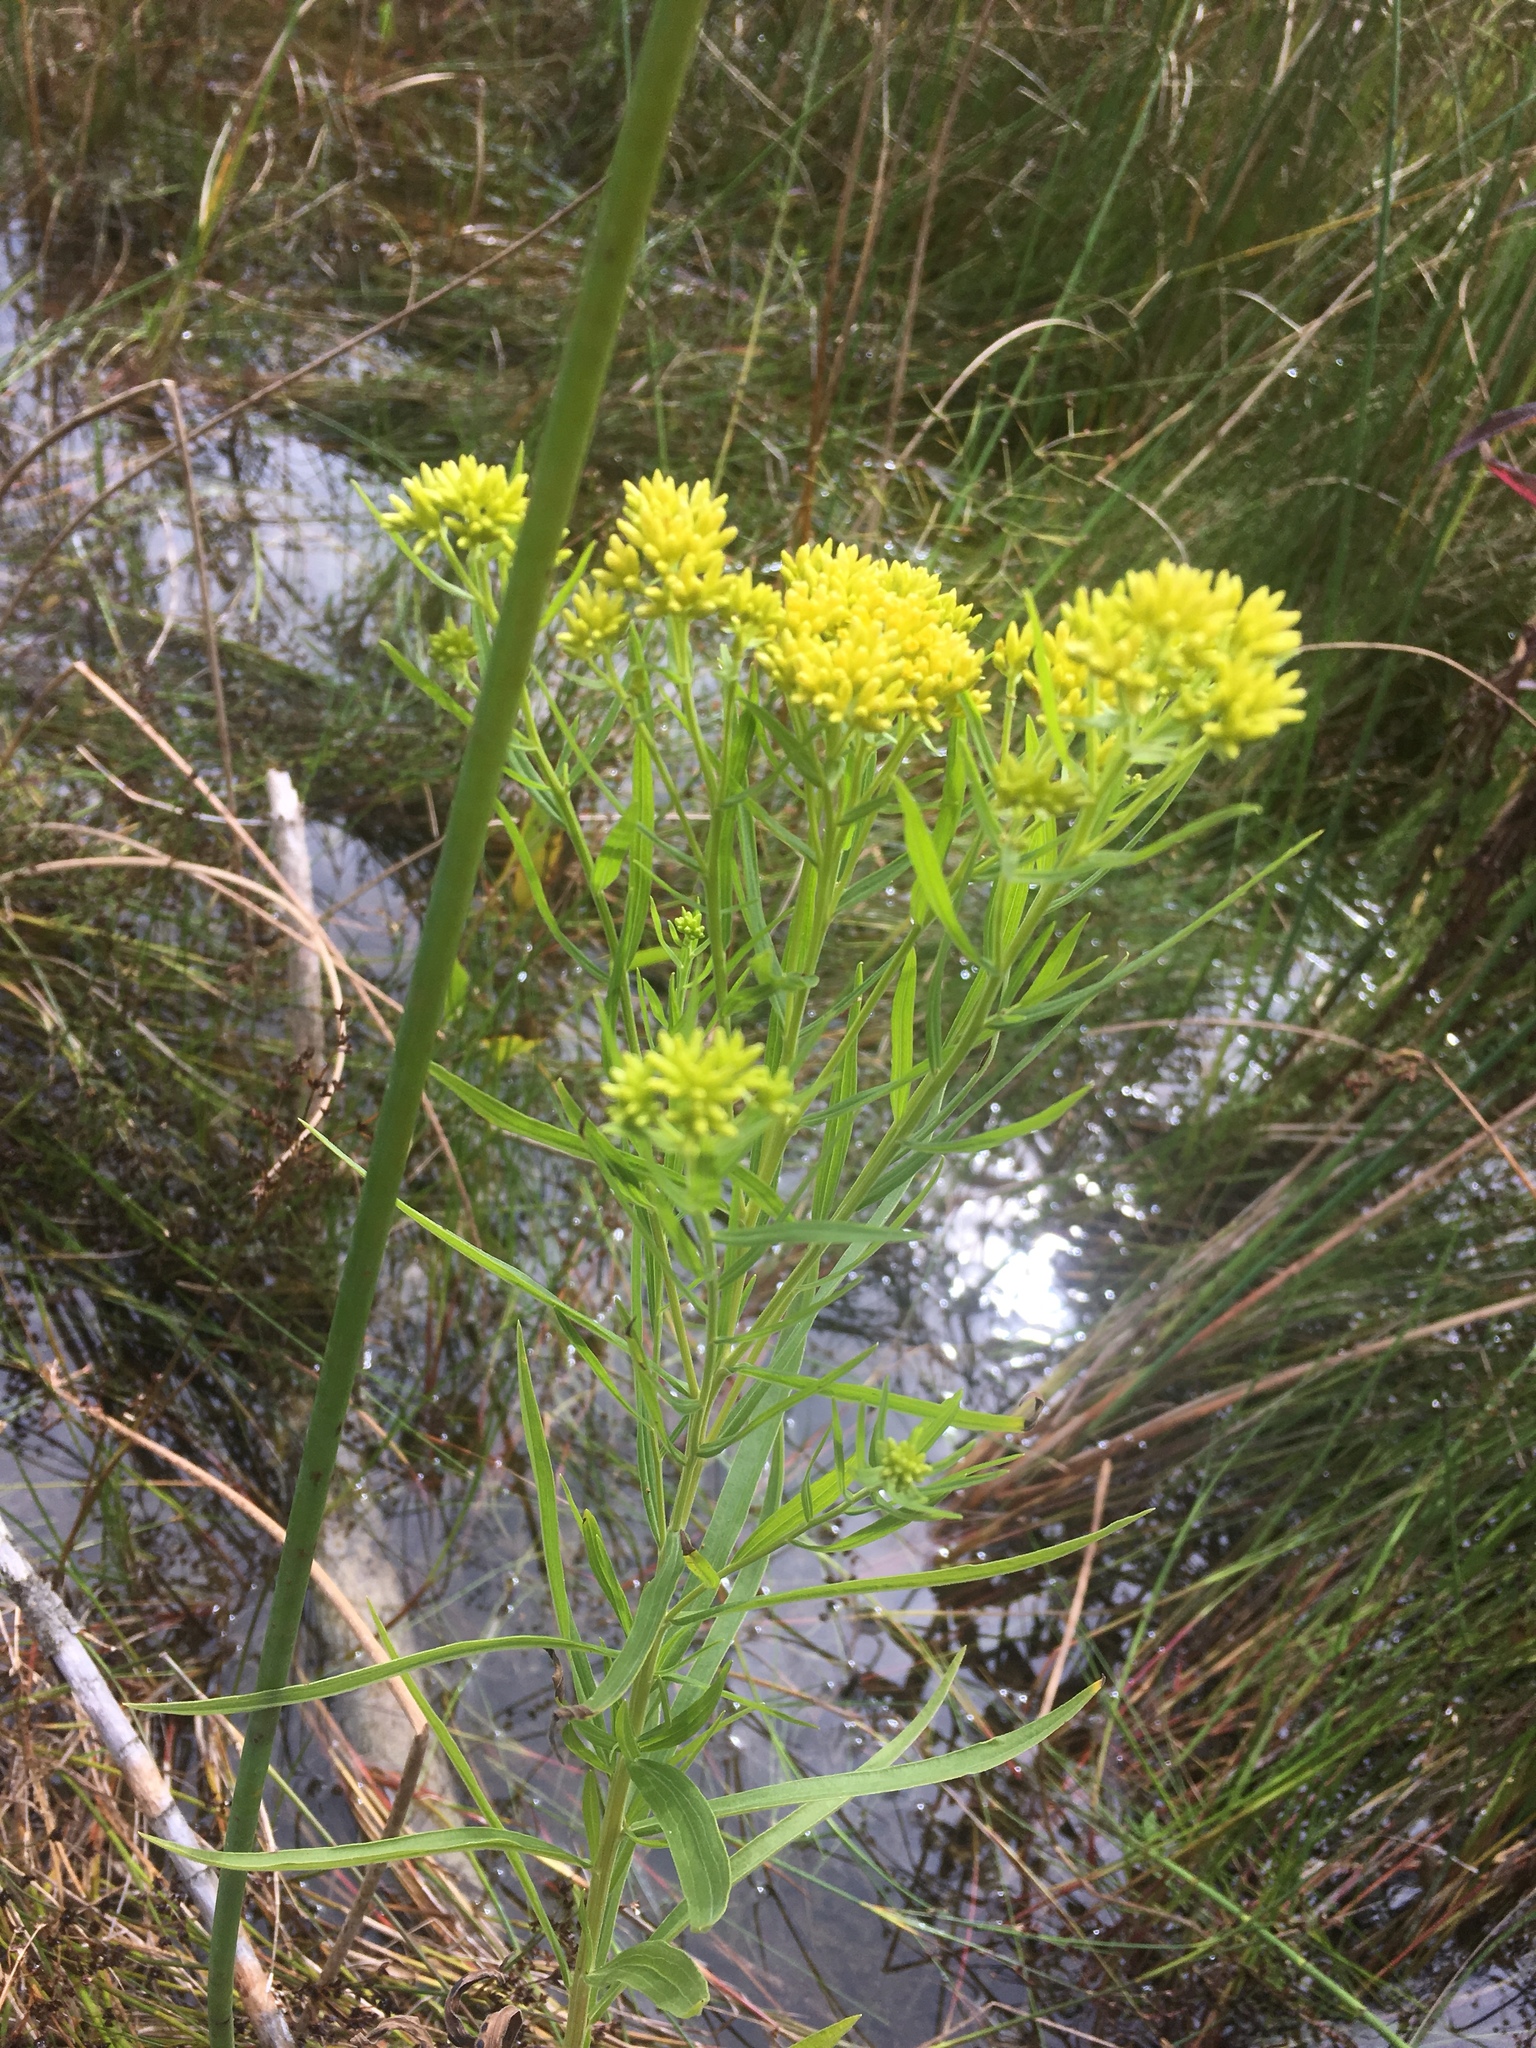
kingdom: Plantae
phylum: Tracheophyta
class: Magnoliopsida
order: Asterales
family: Asteraceae
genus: Euthamia
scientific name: Euthamia graminifolia
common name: Common goldentop
